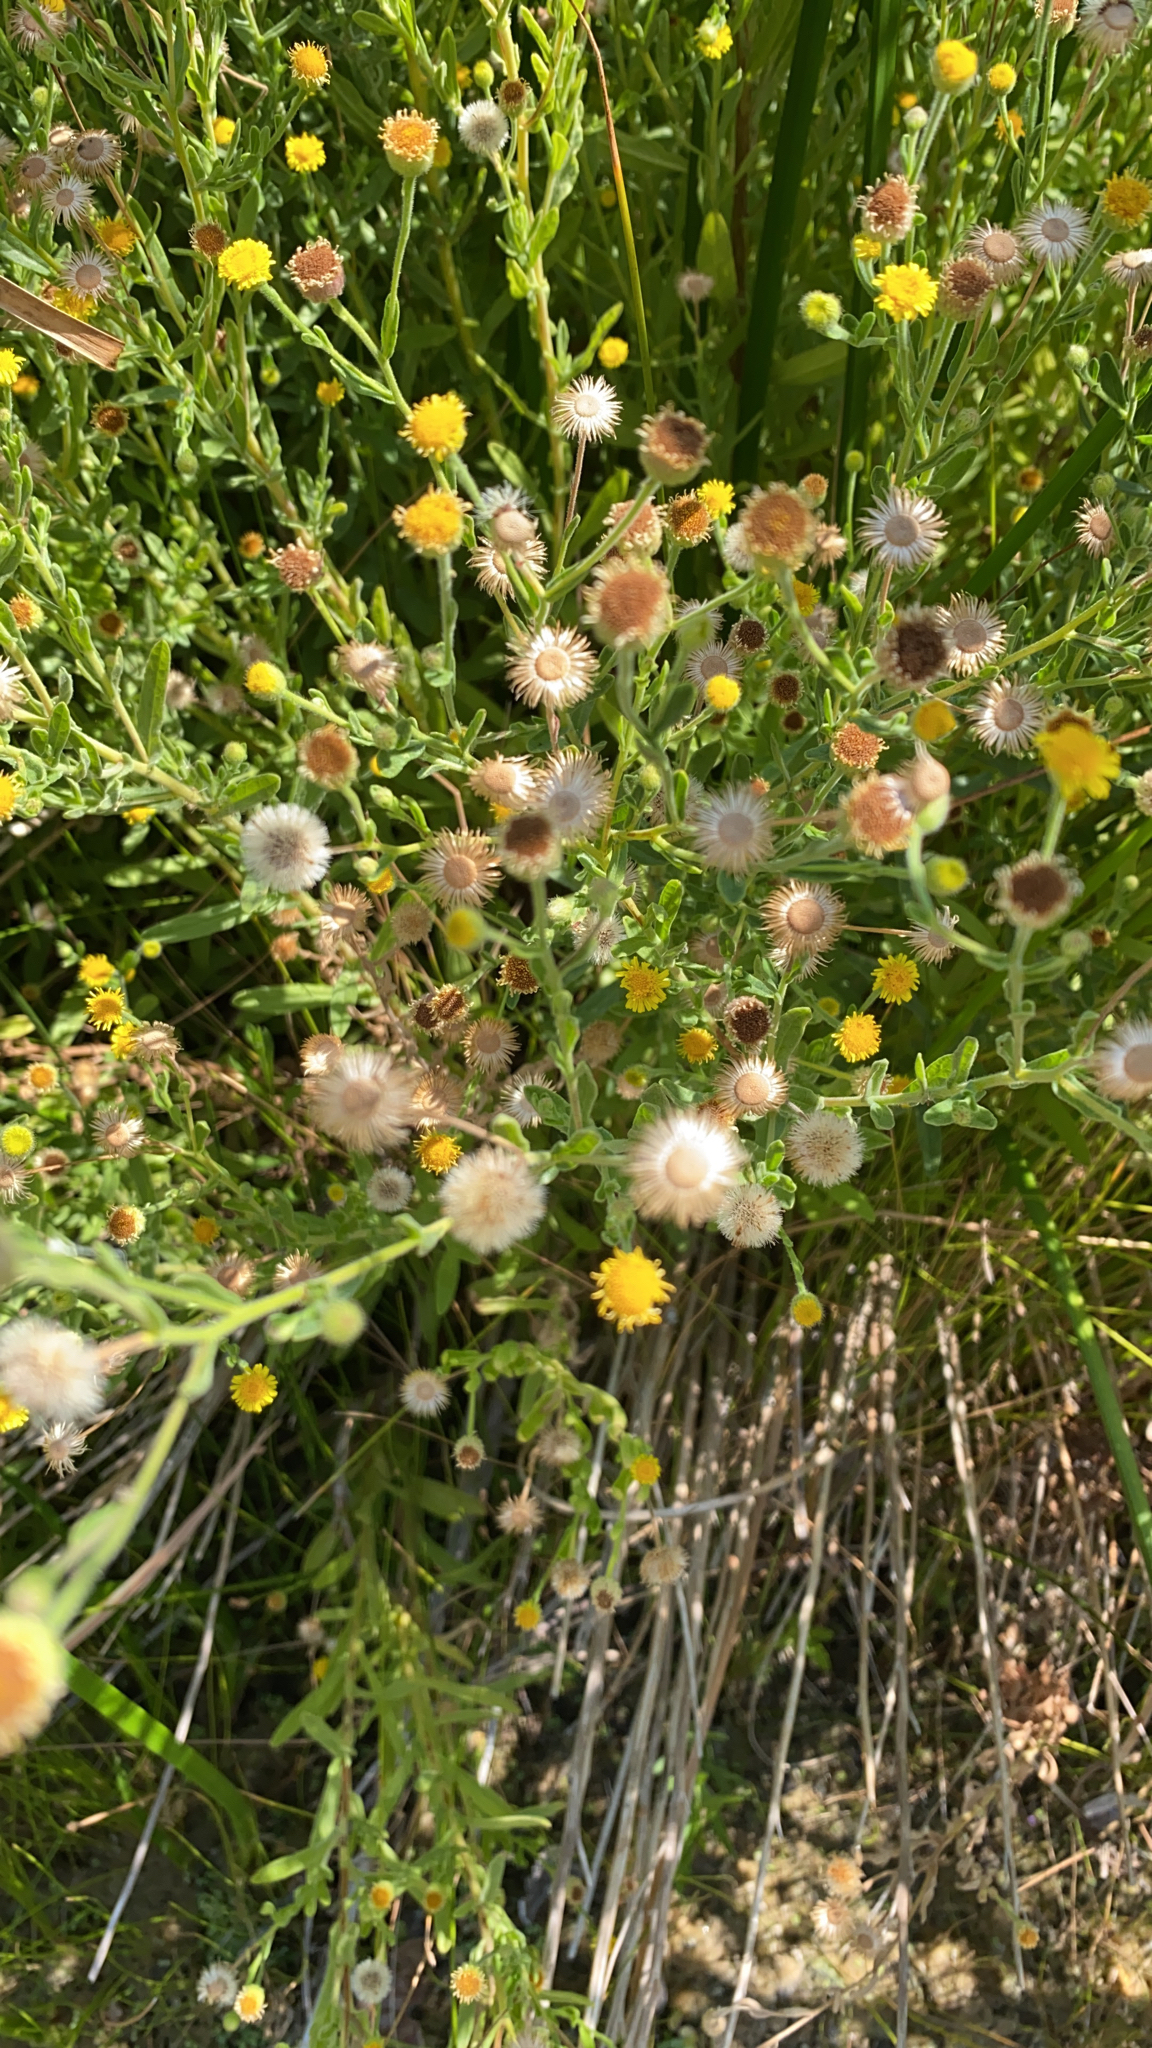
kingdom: Plantae
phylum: Tracheophyta
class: Magnoliopsida
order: Asterales
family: Asteraceae
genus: Pulicaria
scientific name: Pulicaria paludosa
